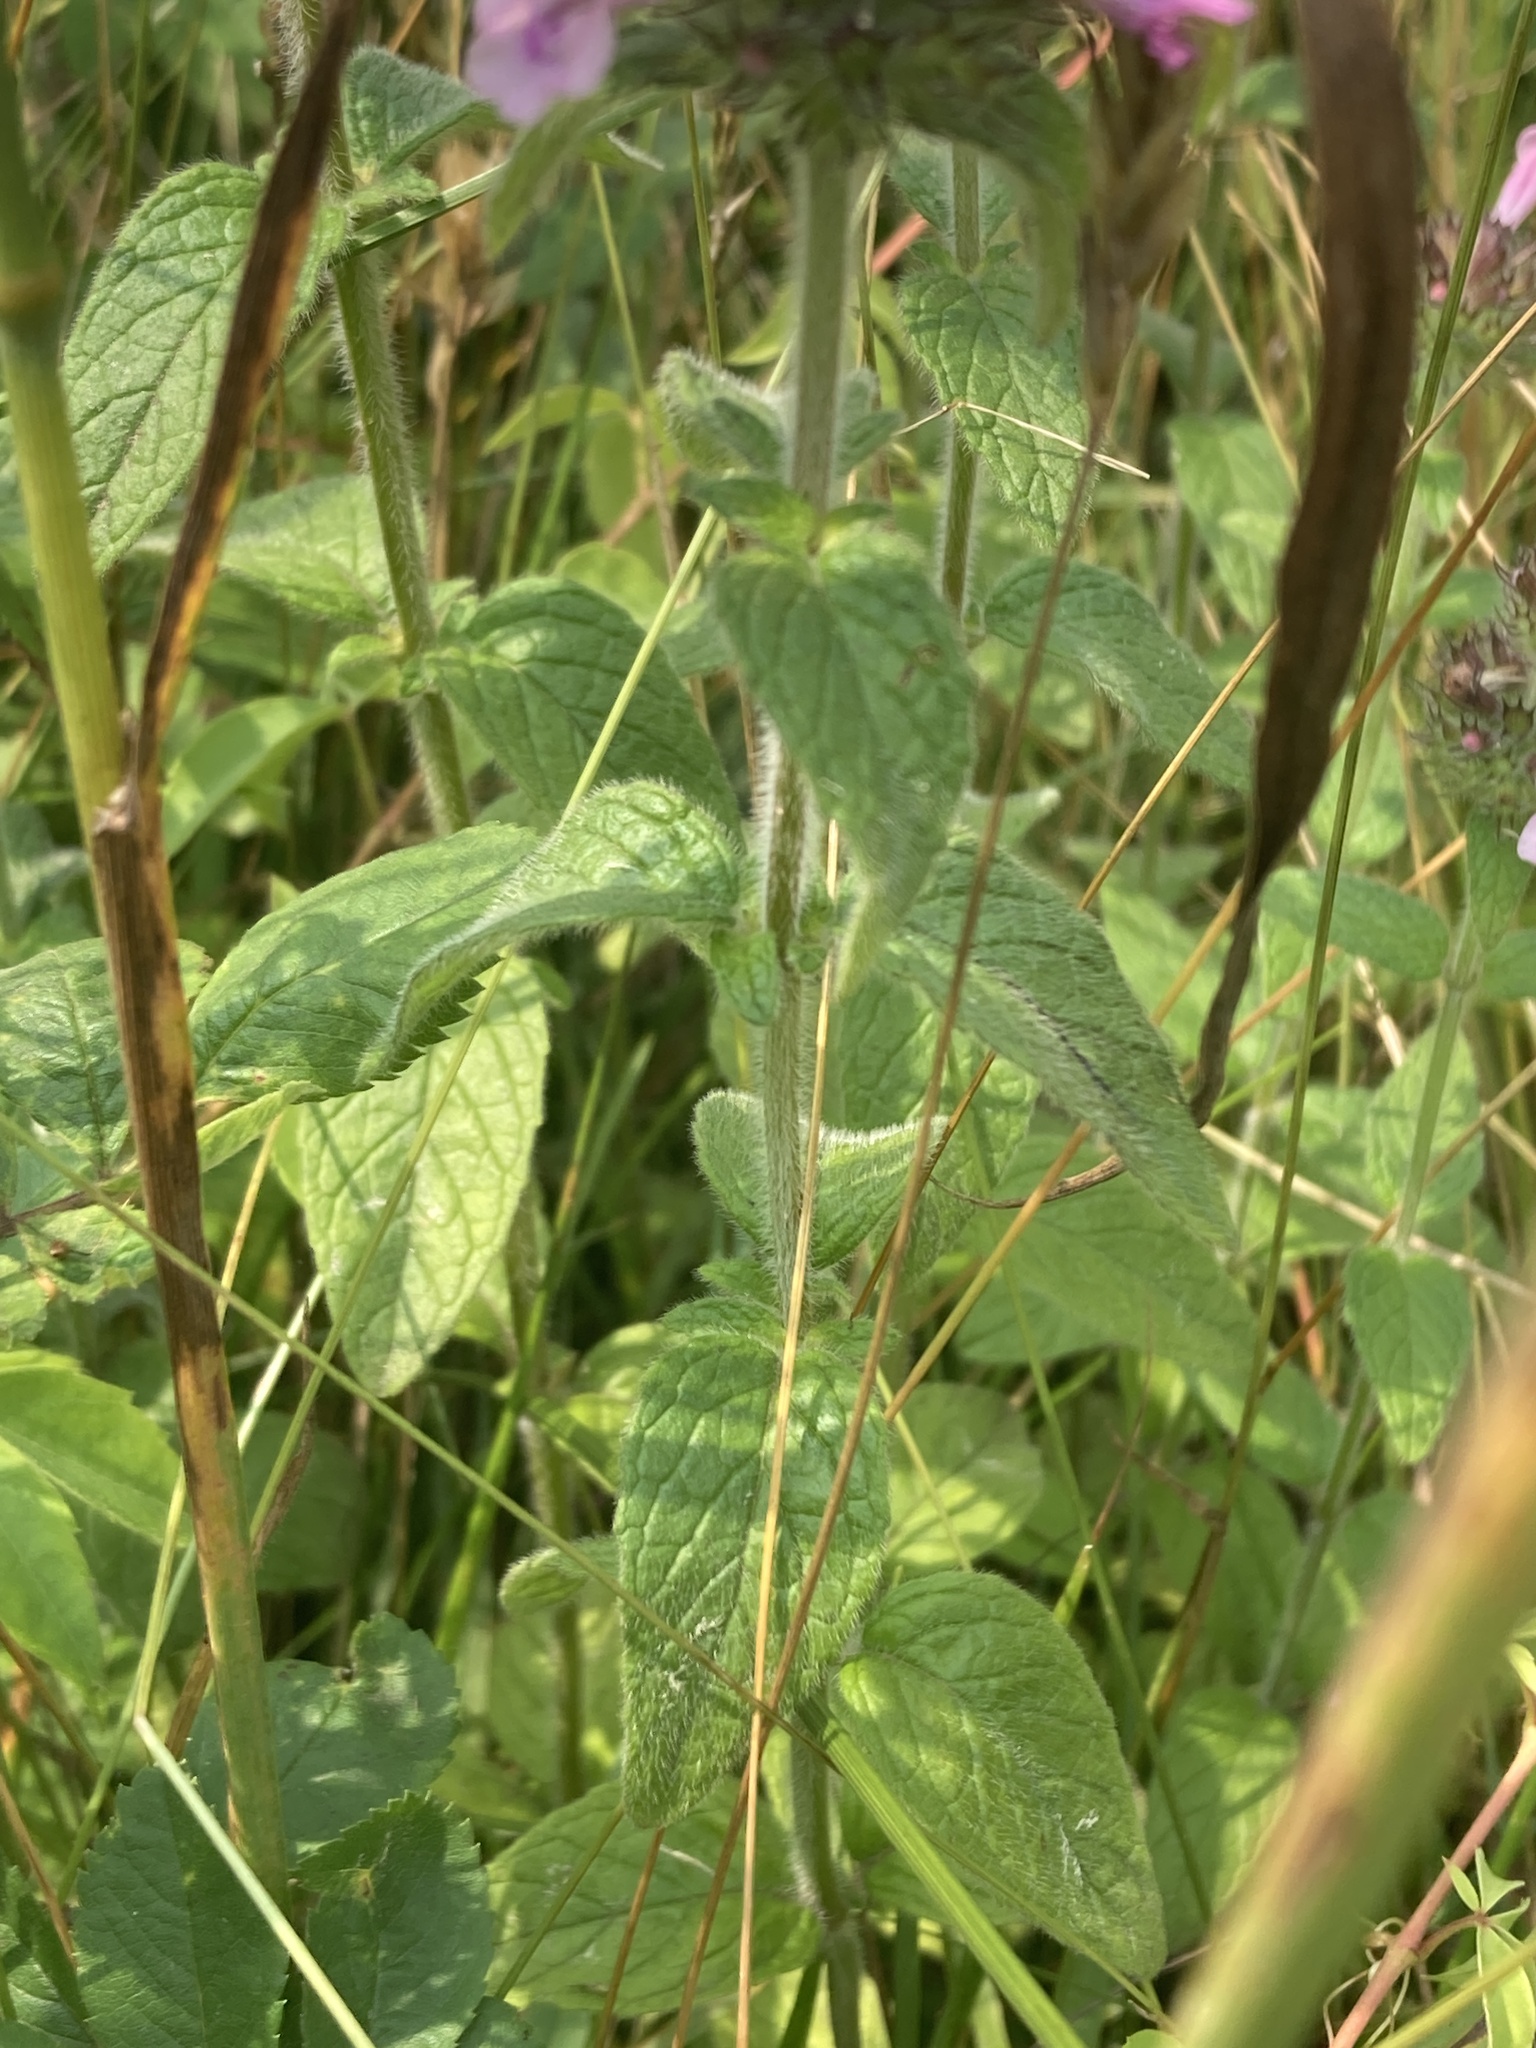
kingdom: Plantae
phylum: Tracheophyta
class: Magnoliopsida
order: Lamiales
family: Lamiaceae
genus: Clinopodium
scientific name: Clinopodium vulgare
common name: Wild basil
